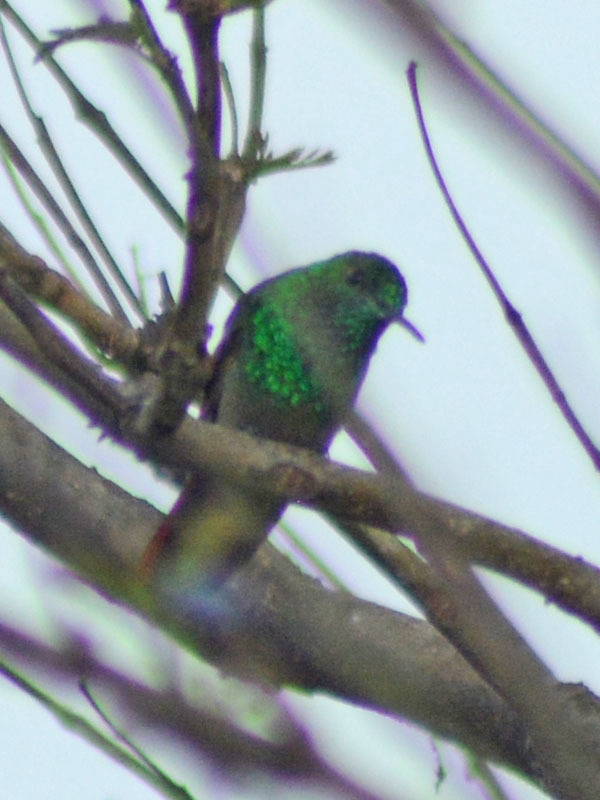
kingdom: Animalia
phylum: Chordata
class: Aves
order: Apodiformes
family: Trochilidae
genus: Saucerottia
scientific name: Saucerottia beryllina
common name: Berylline hummingbird
